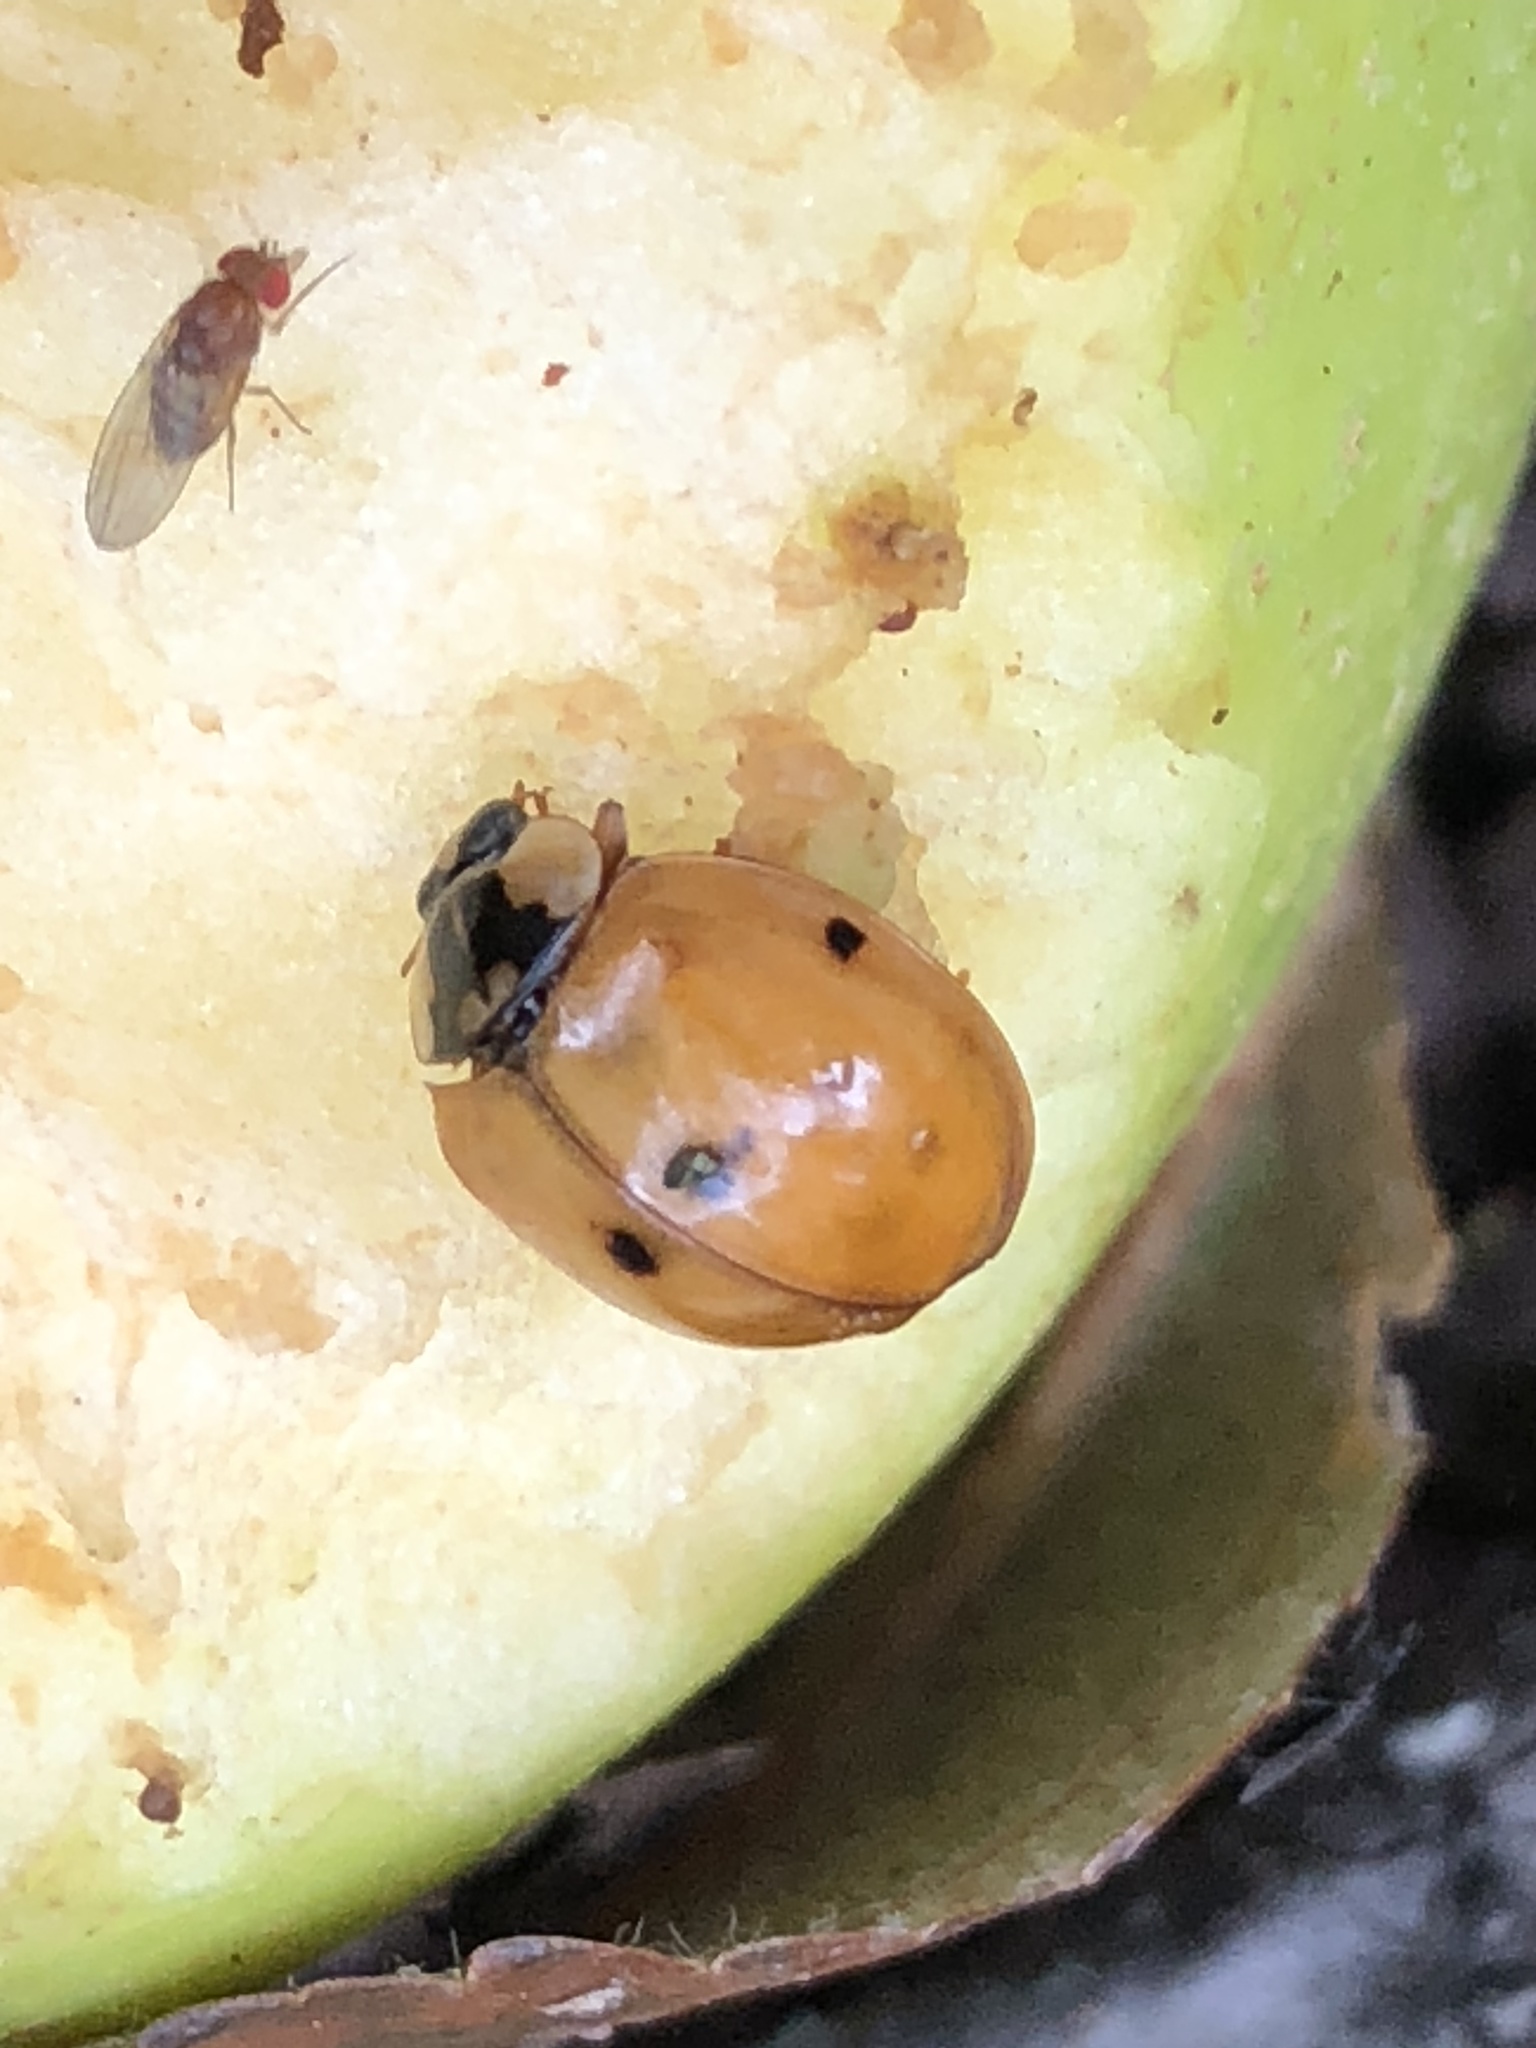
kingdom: Animalia
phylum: Arthropoda
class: Insecta
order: Coleoptera
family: Coccinellidae
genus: Harmonia
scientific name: Harmonia axyridis
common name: Harlequin ladybird
